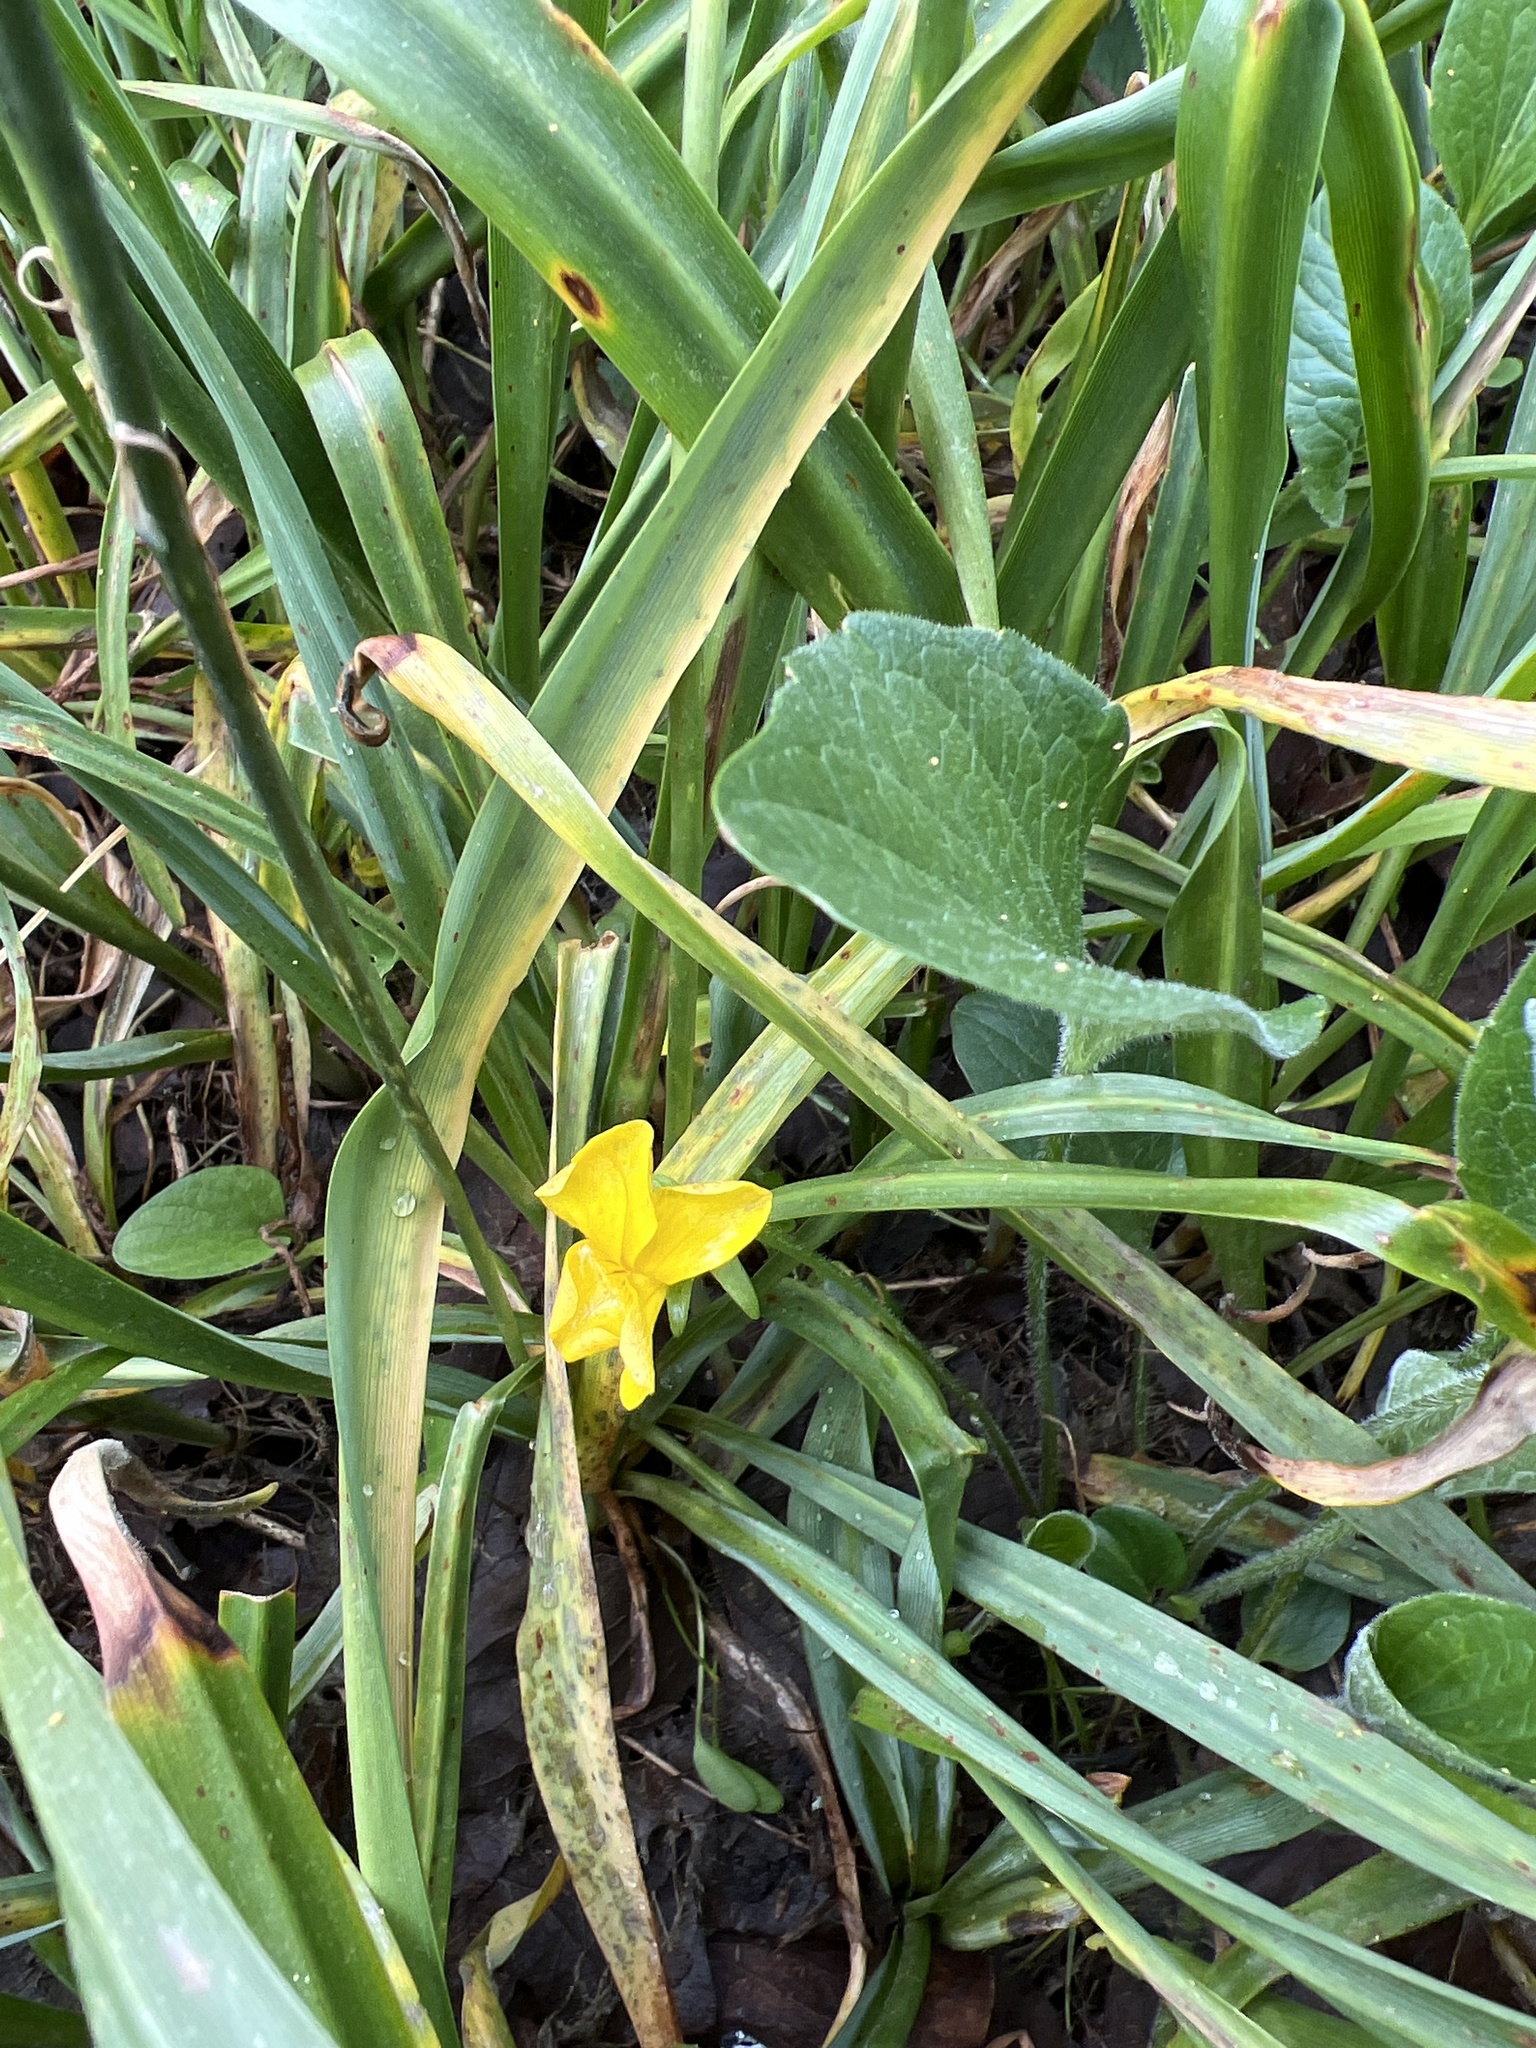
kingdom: Plantae
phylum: Tracheophyta
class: Magnoliopsida
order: Malpighiales
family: Violaceae
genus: Viola
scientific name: Viola praemorsa
